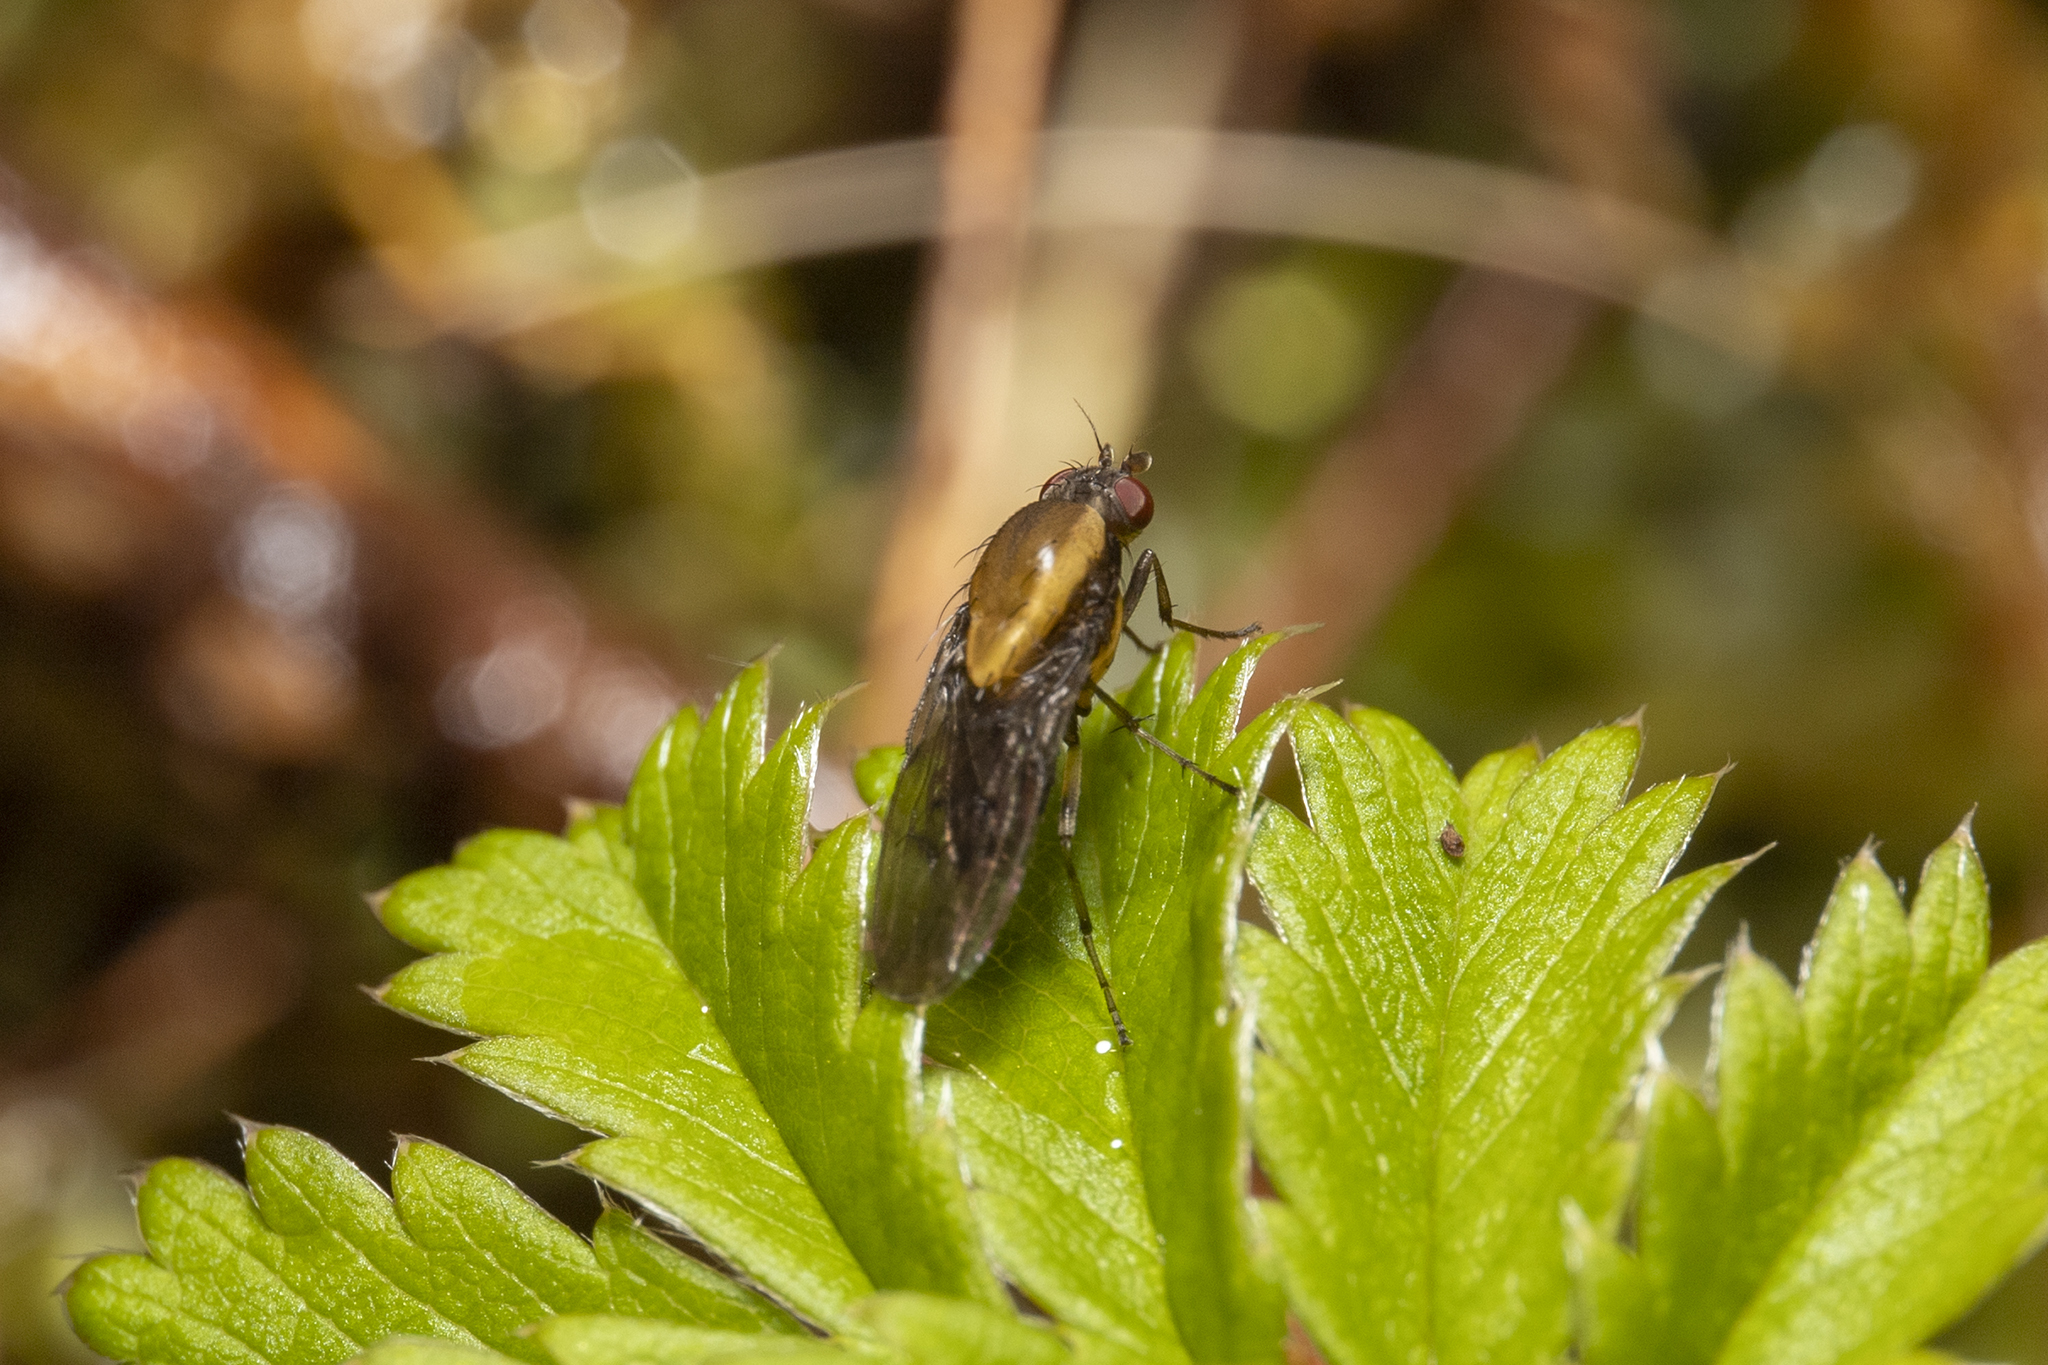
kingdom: Animalia
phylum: Arthropoda
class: Insecta
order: Diptera
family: Heleomyzidae
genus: Allophylopsis
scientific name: Allophylopsis scutellata
